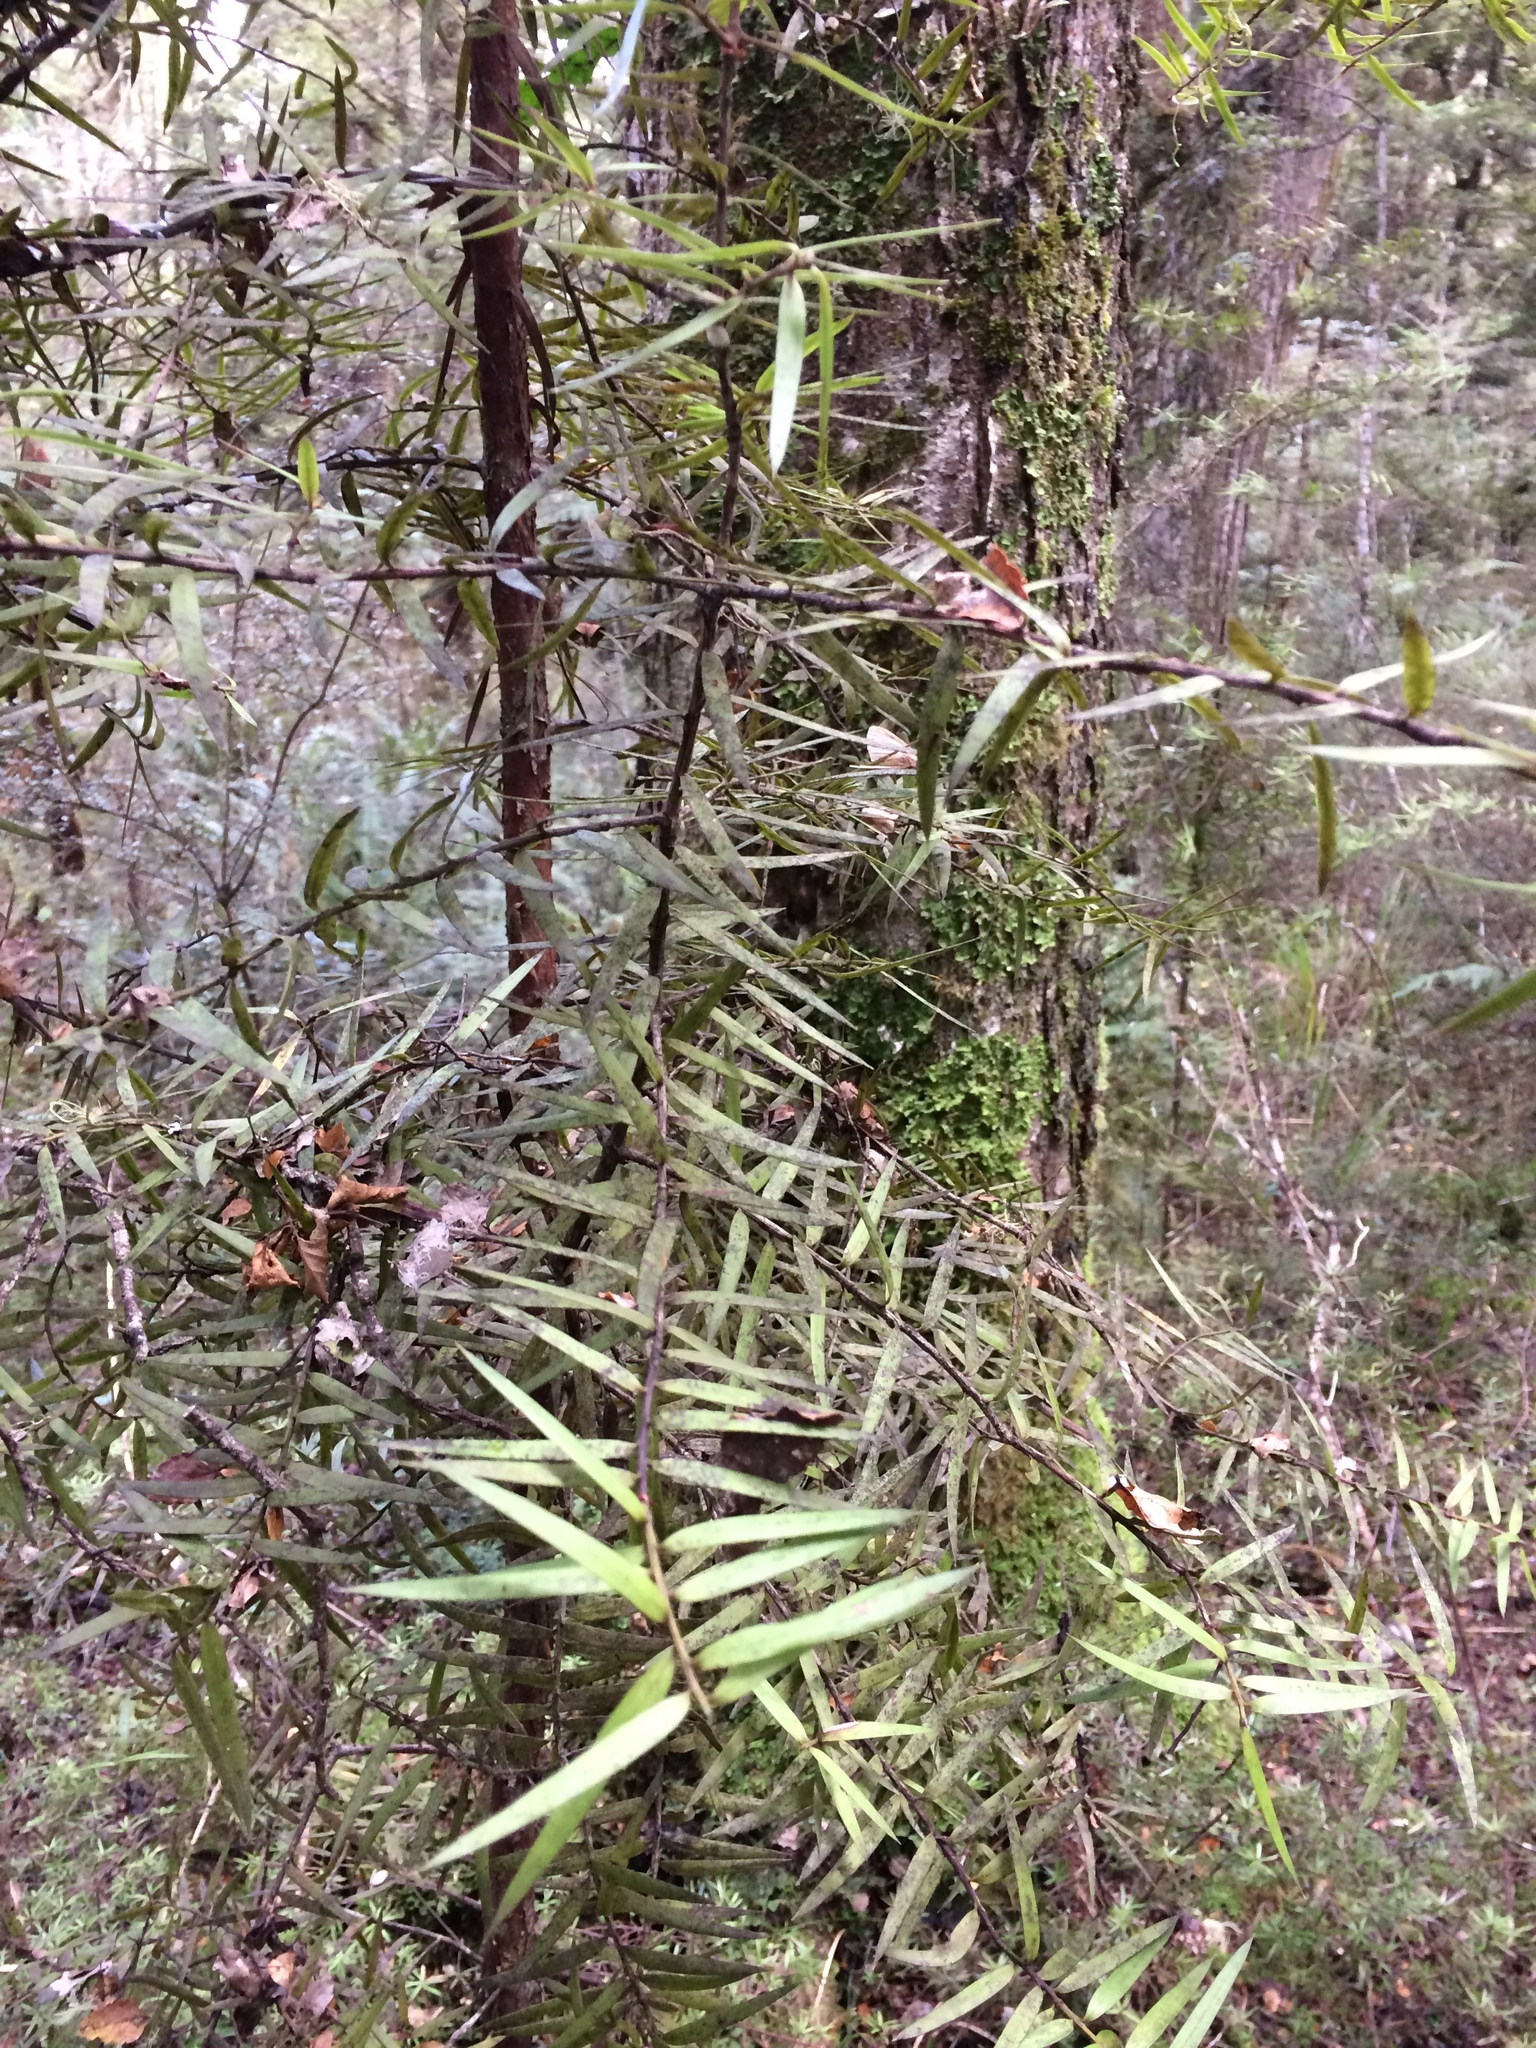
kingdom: Plantae
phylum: Tracheophyta
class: Pinopsida
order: Pinales
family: Podocarpaceae
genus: Podocarpus
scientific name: Podocarpus laetus
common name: Hall's totara
